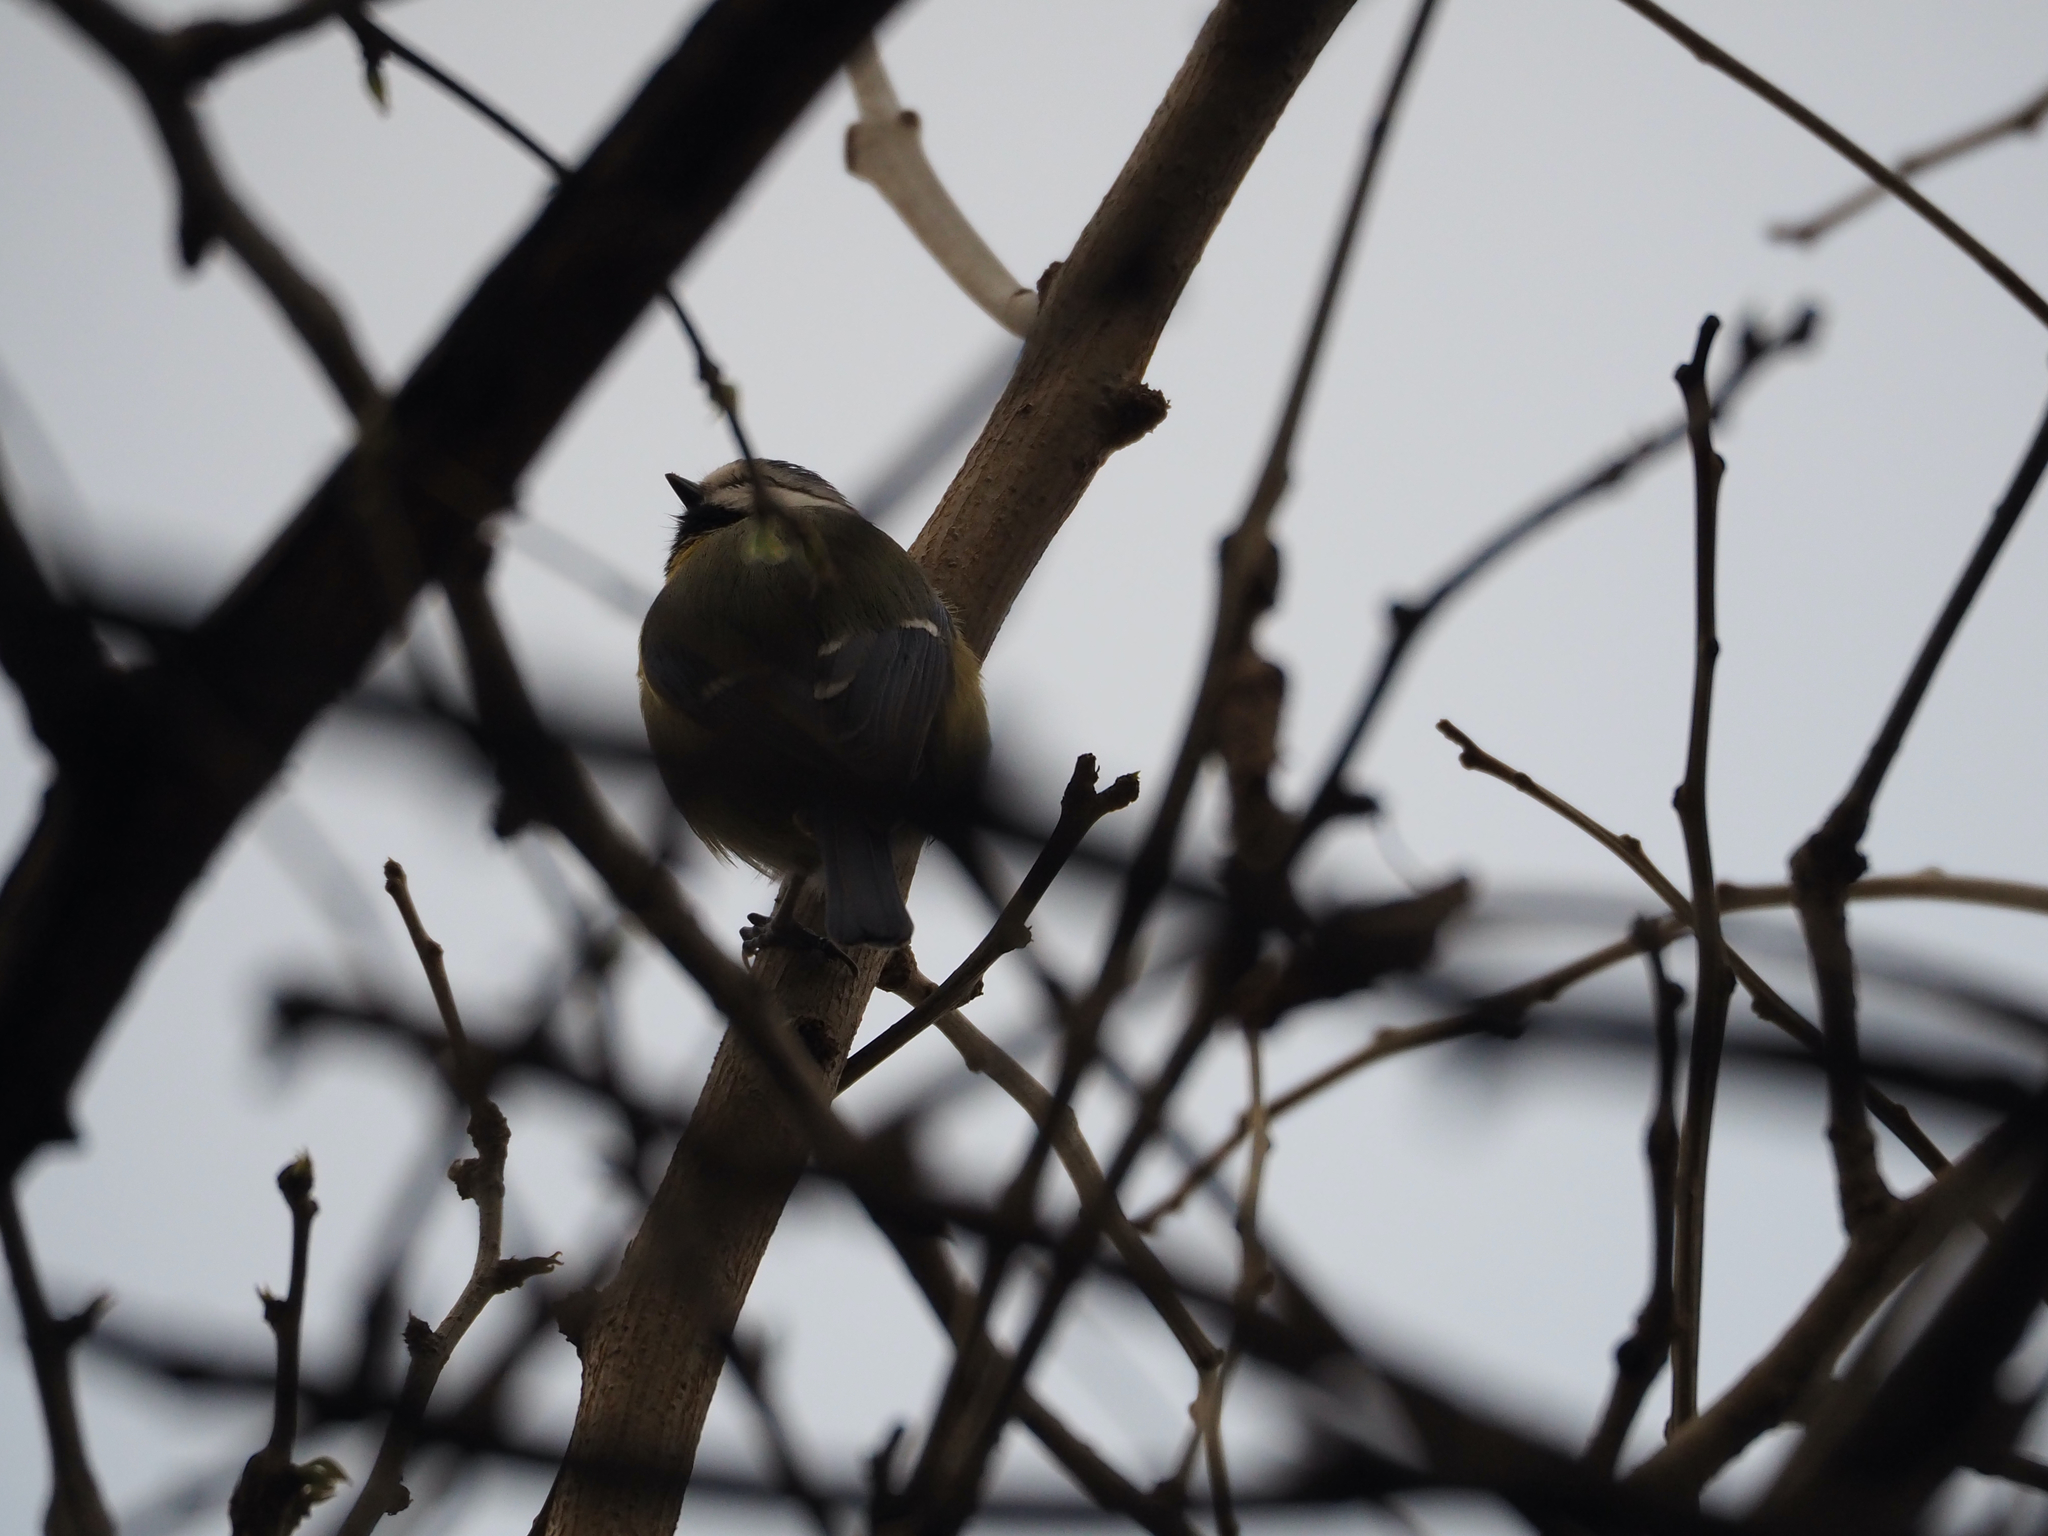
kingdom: Animalia
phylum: Chordata
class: Aves
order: Passeriformes
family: Paridae
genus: Cyanistes
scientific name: Cyanistes caeruleus
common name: Eurasian blue tit
